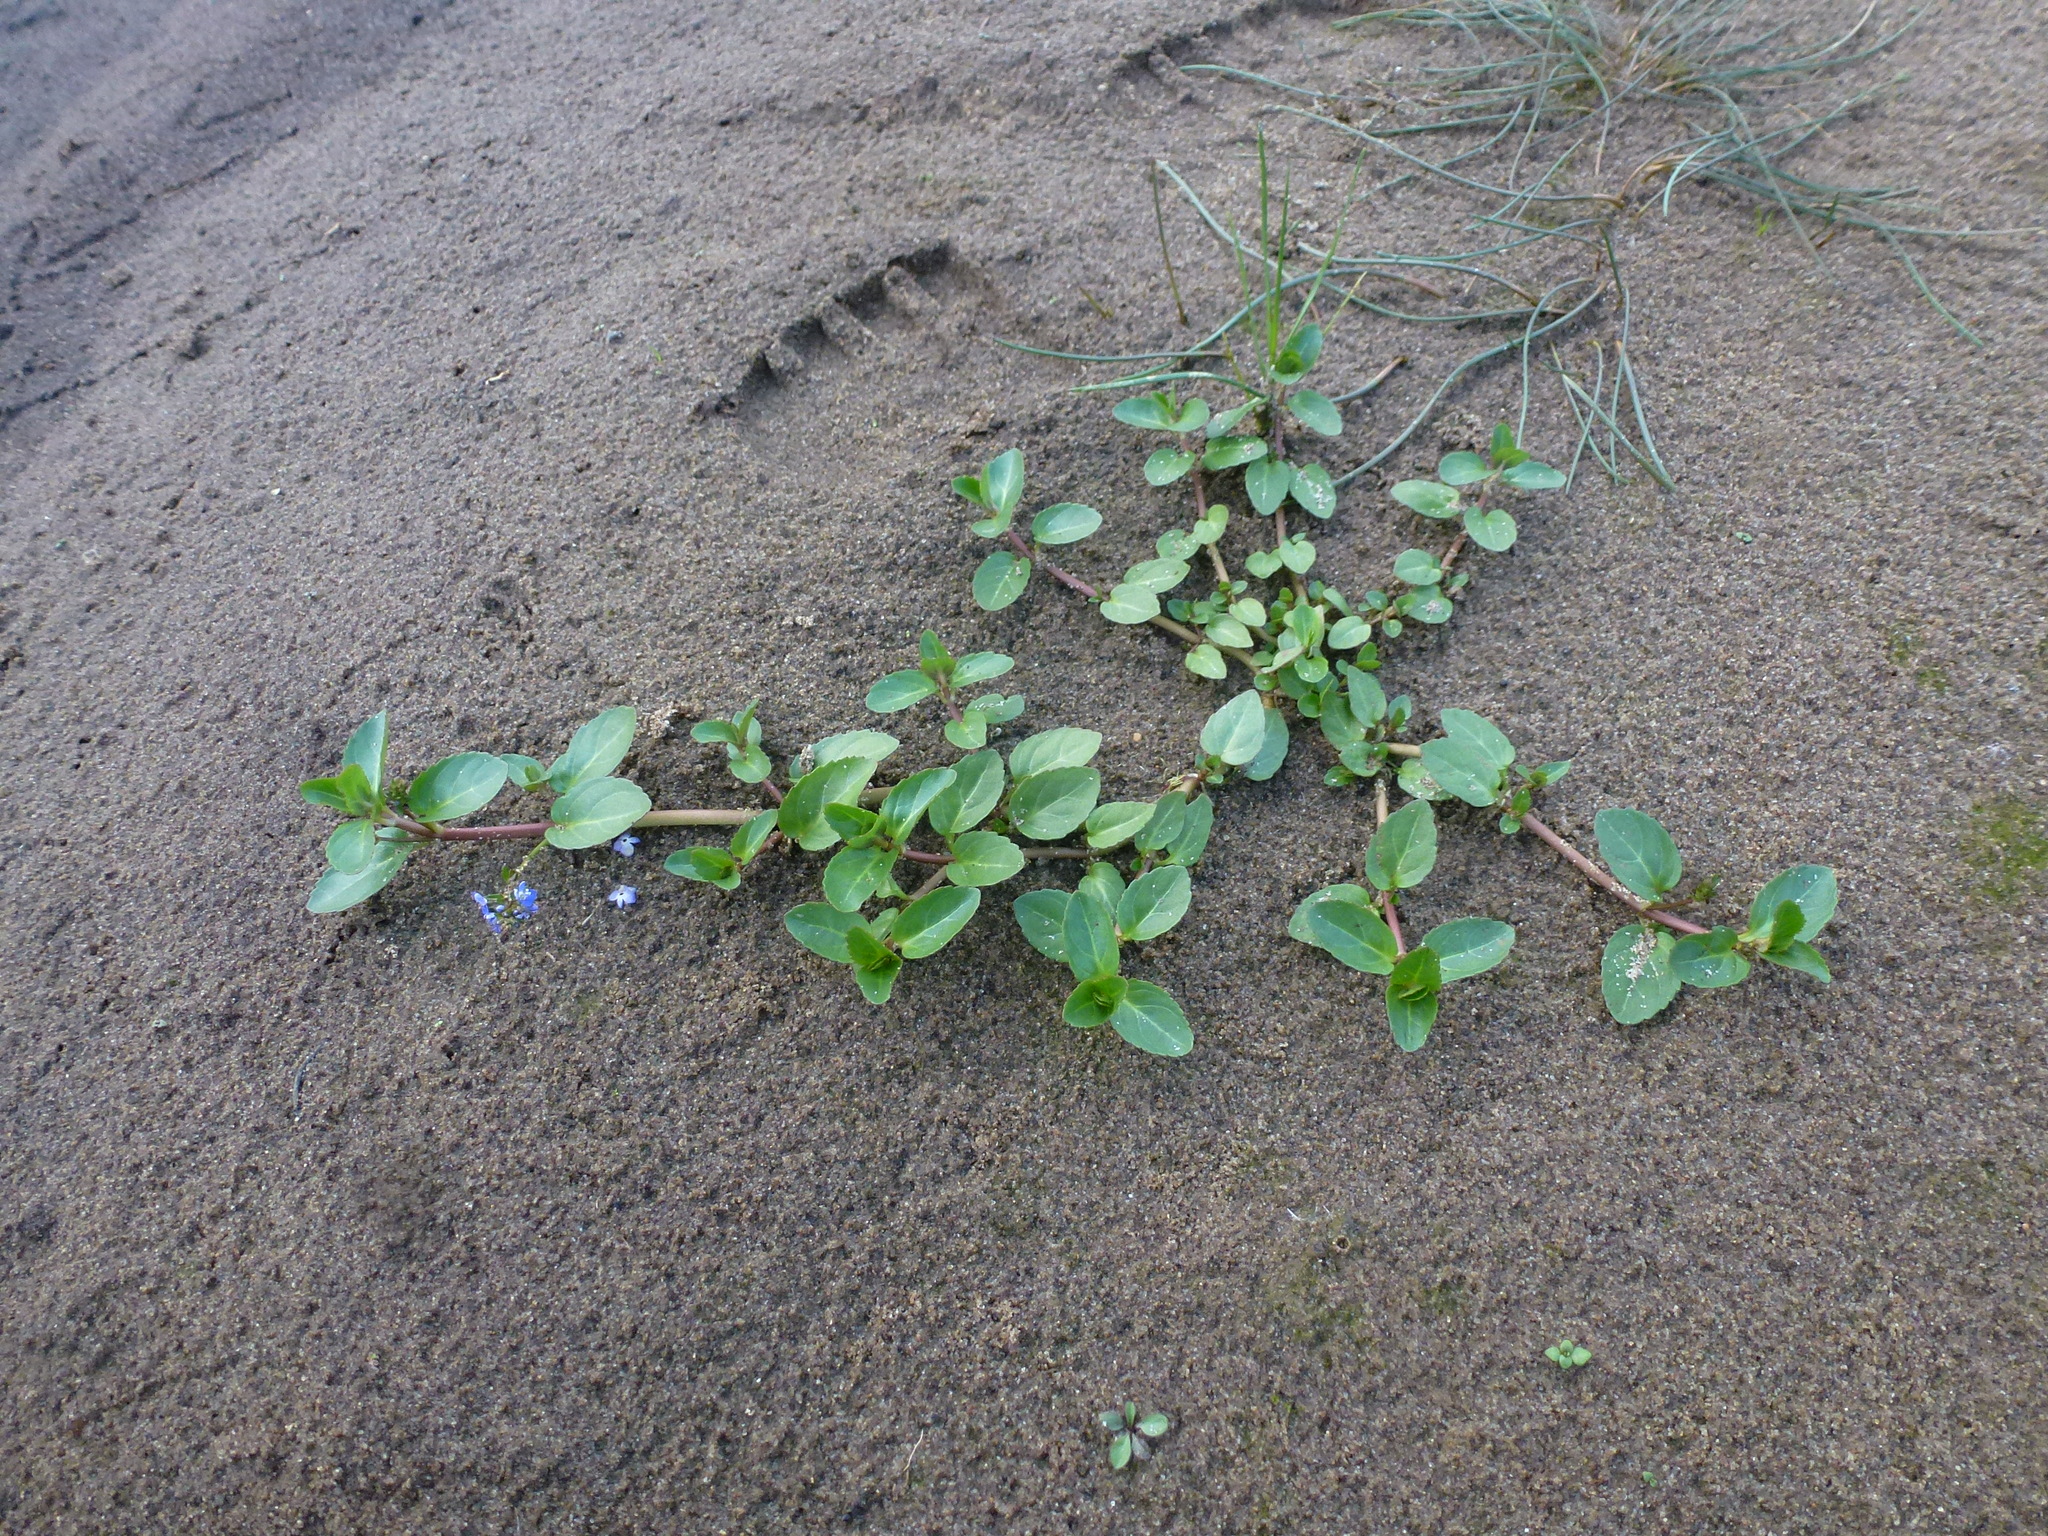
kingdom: Plantae
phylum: Tracheophyta
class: Magnoliopsida
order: Lamiales
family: Plantaginaceae
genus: Veronica
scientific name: Veronica beccabunga
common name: Brooklime
